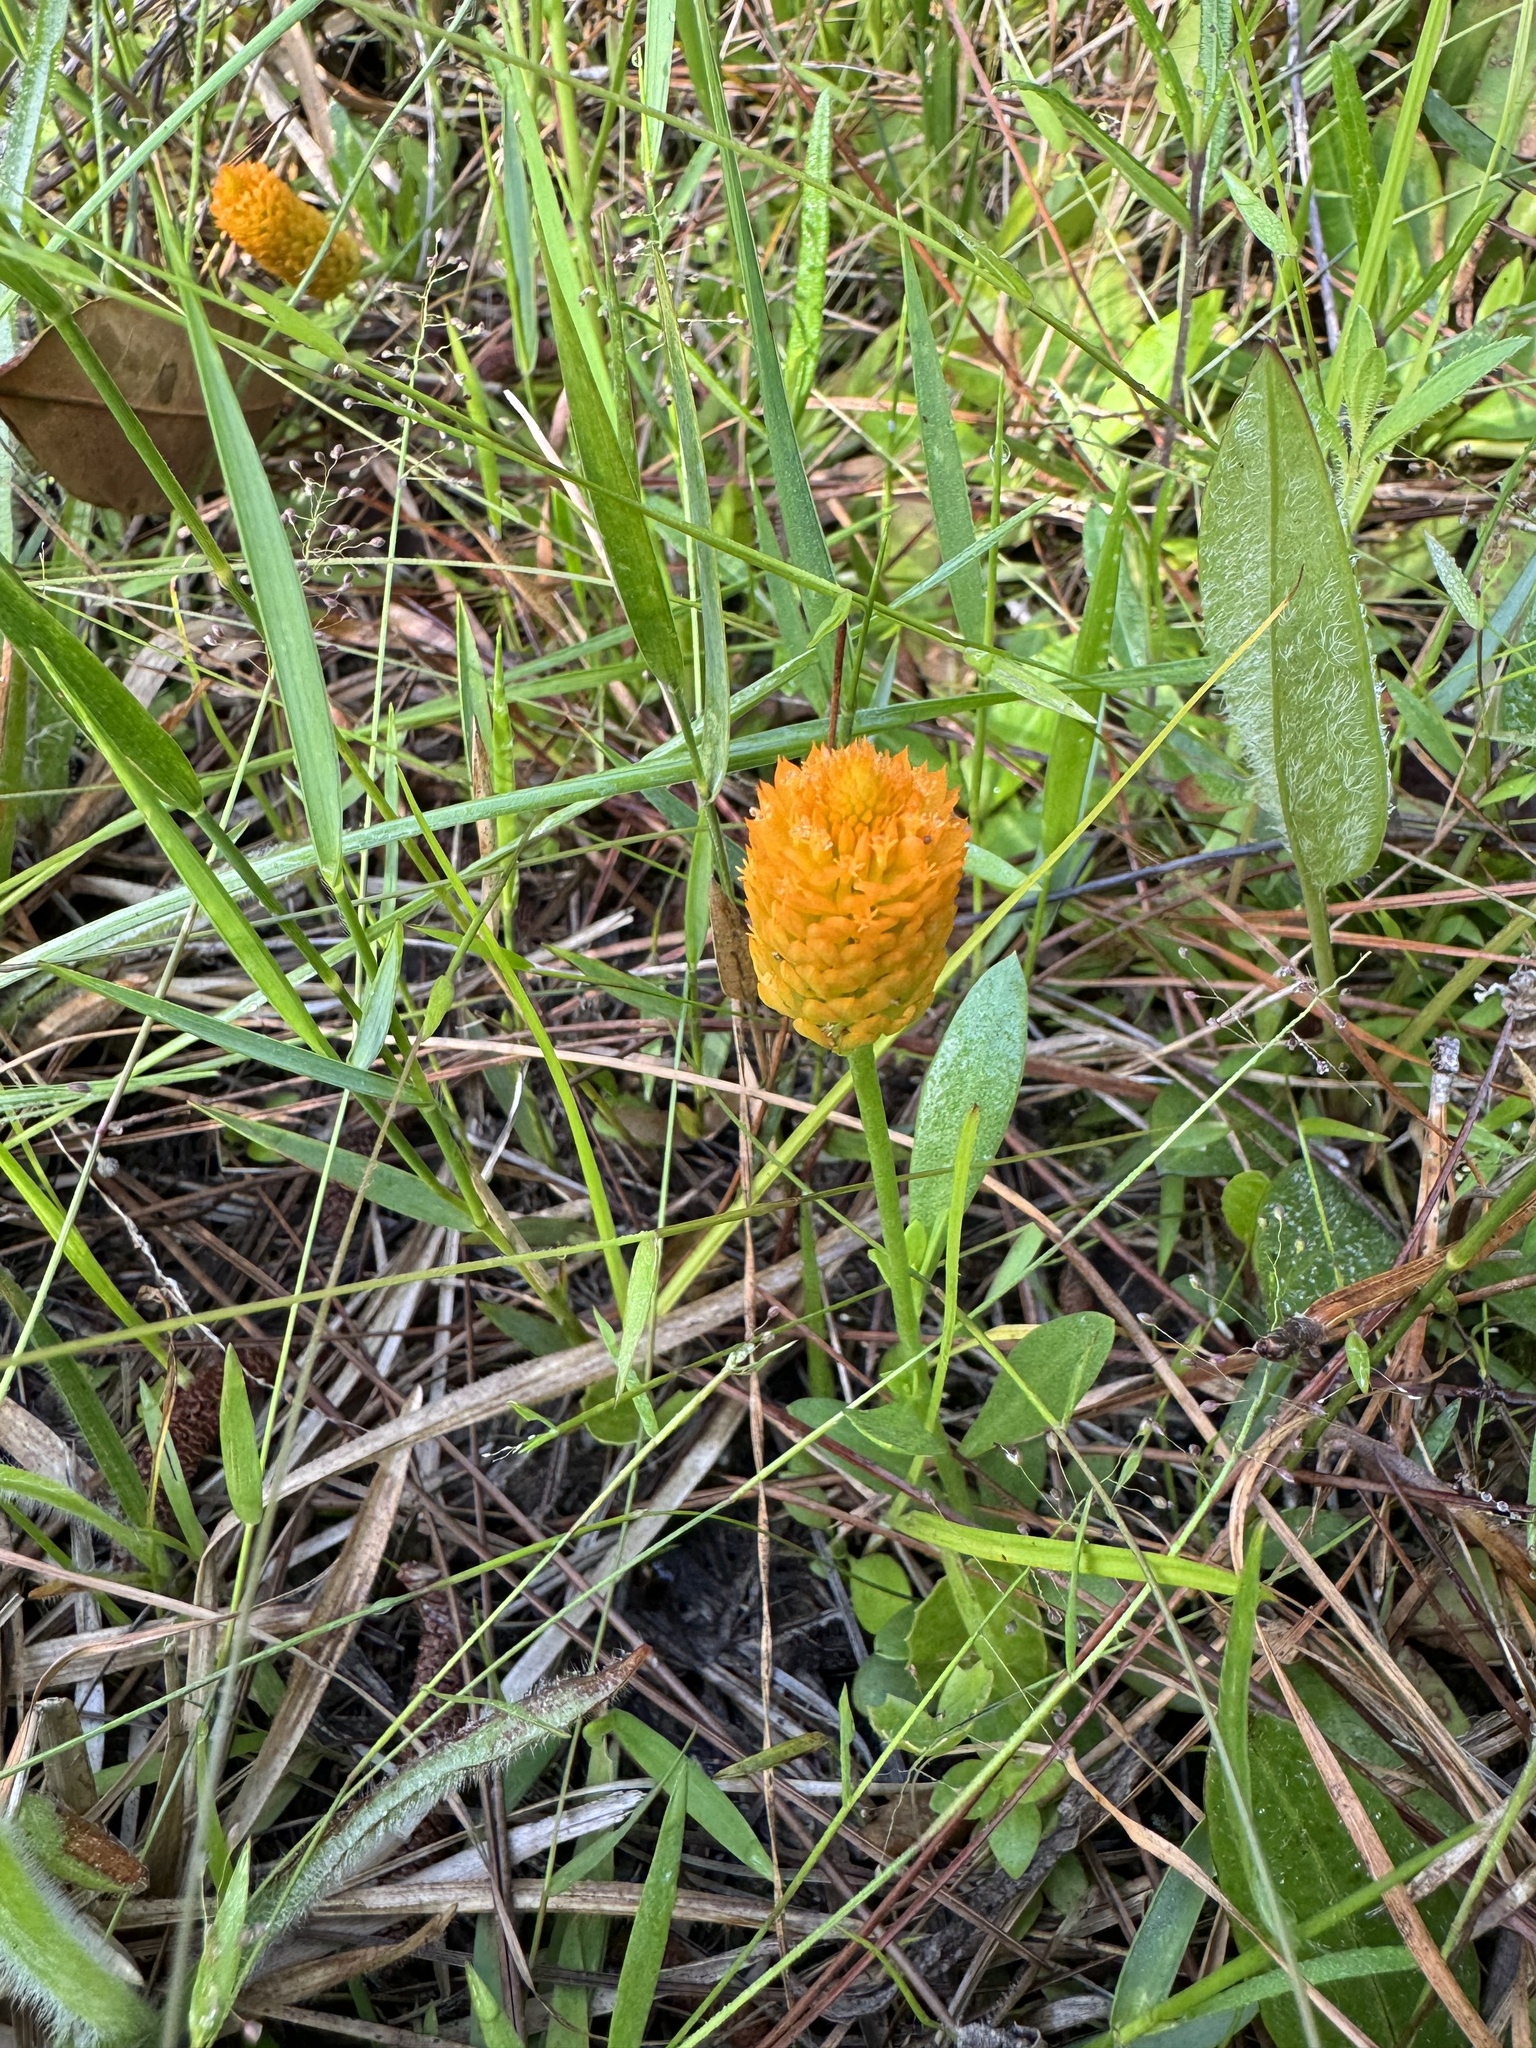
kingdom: Plantae
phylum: Tracheophyta
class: Magnoliopsida
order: Fabales
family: Polygalaceae
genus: Polygala
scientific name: Polygala lutea
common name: Orange milkwort
